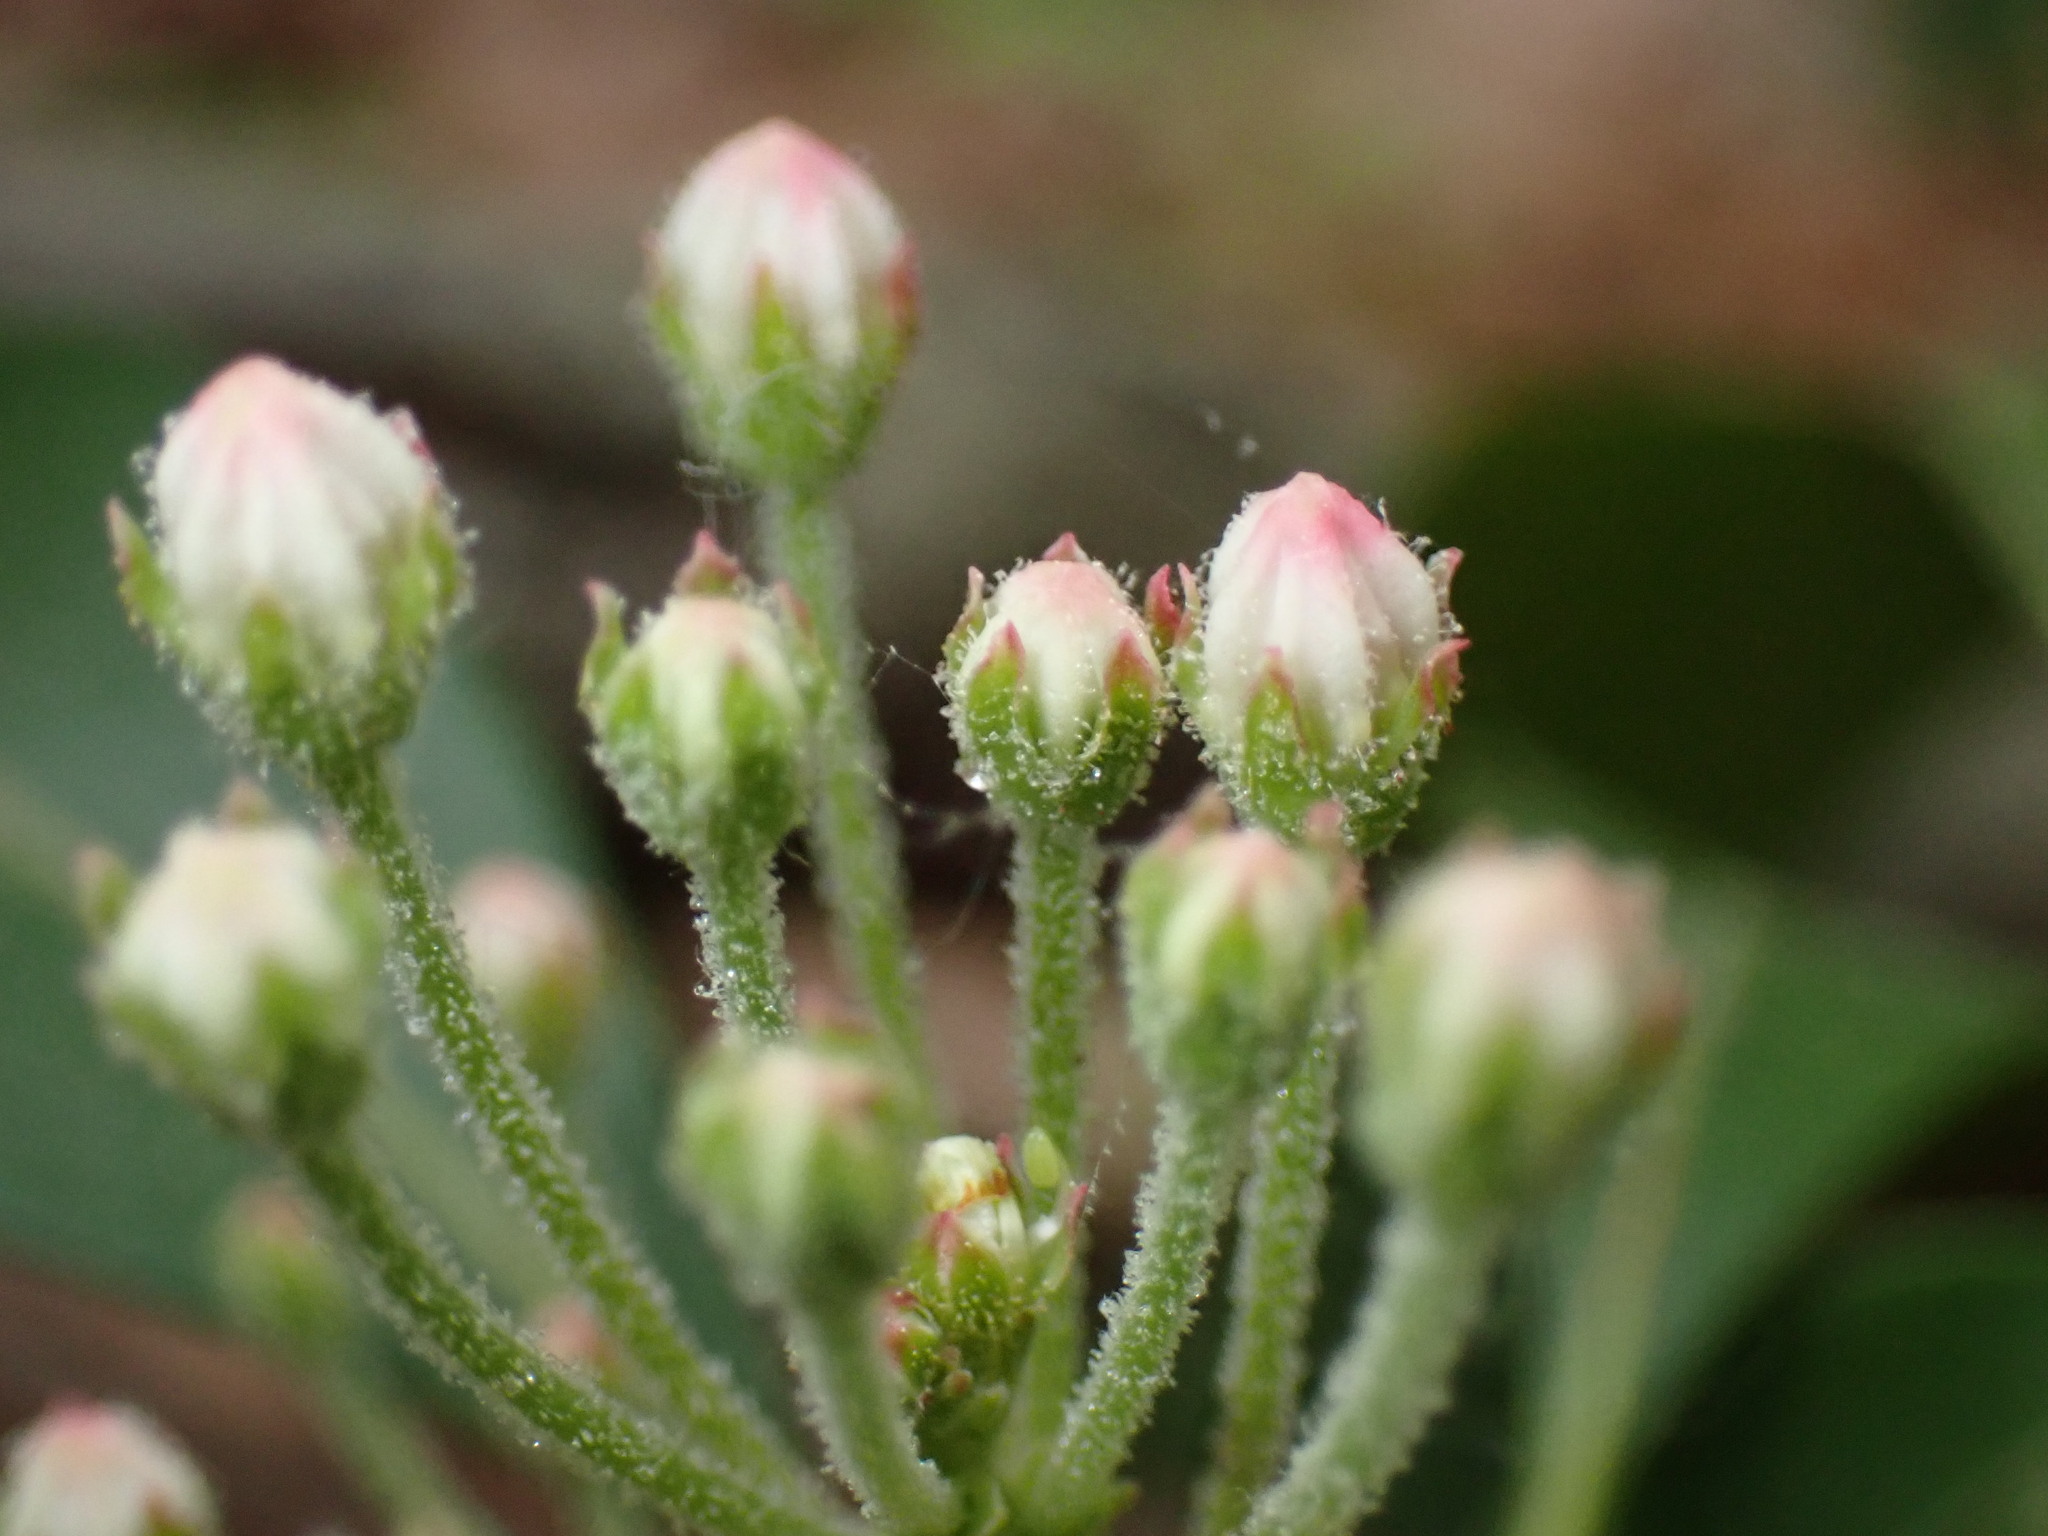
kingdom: Plantae
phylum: Tracheophyta
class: Magnoliopsida
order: Ericales
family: Ericaceae
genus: Kalmia
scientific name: Kalmia latifolia
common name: Mountain-laurel
